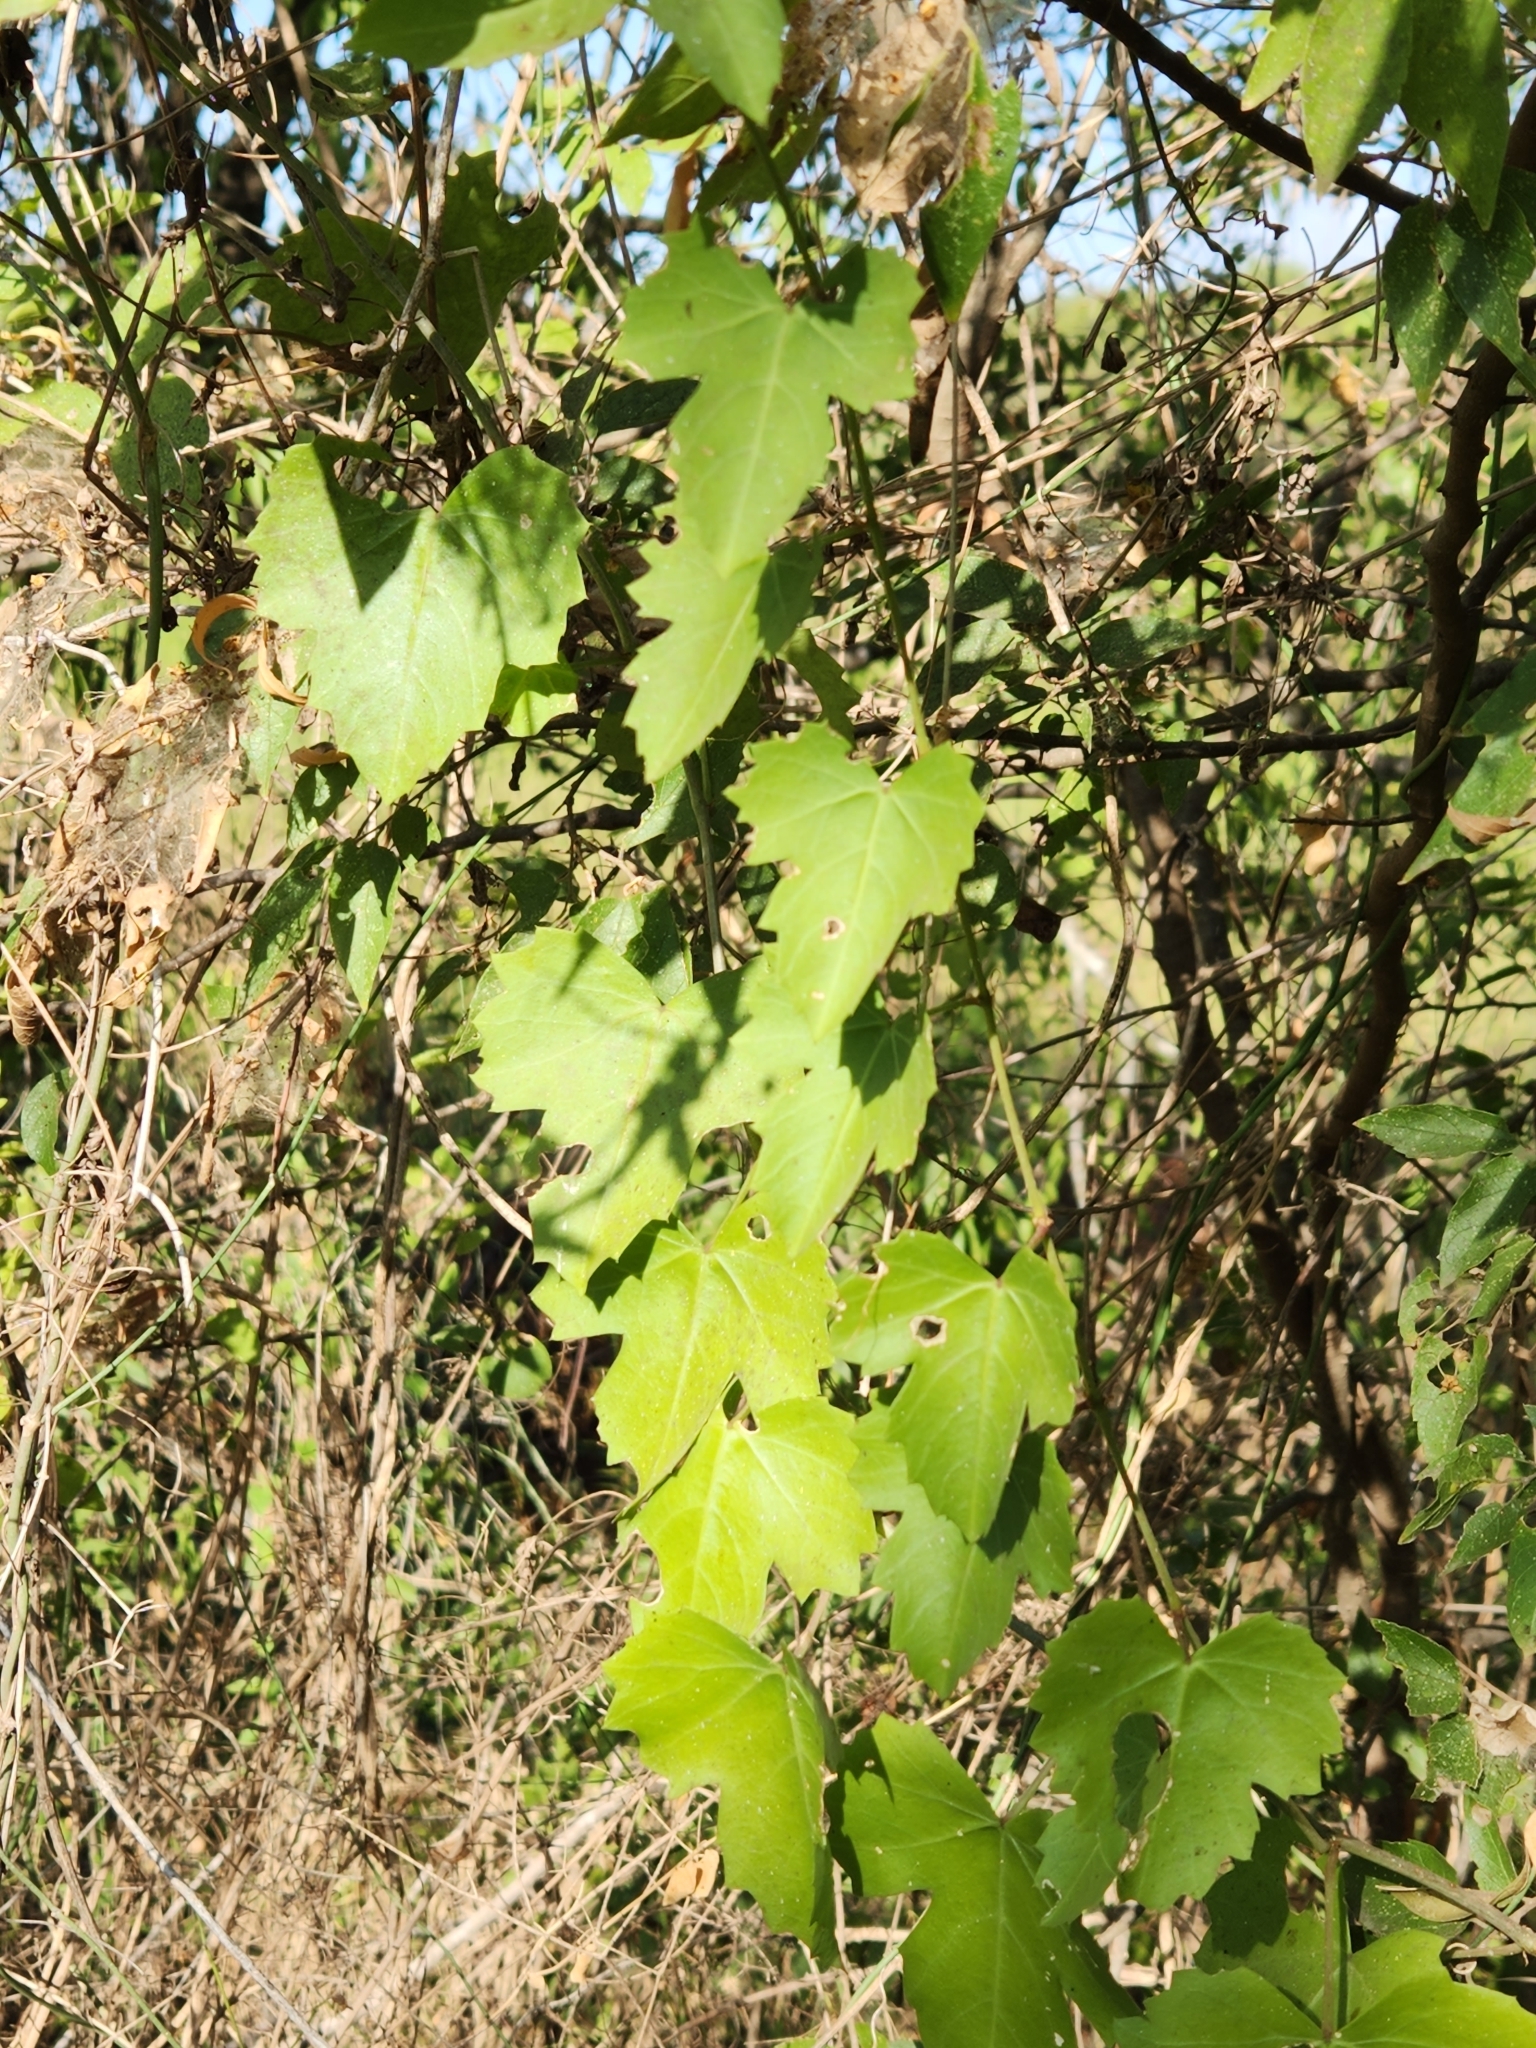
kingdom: Plantae
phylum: Tracheophyta
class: Magnoliopsida
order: Vitales
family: Vitaceae
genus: Cissus
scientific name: Cissus trifoliata
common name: Vine-sorrel
